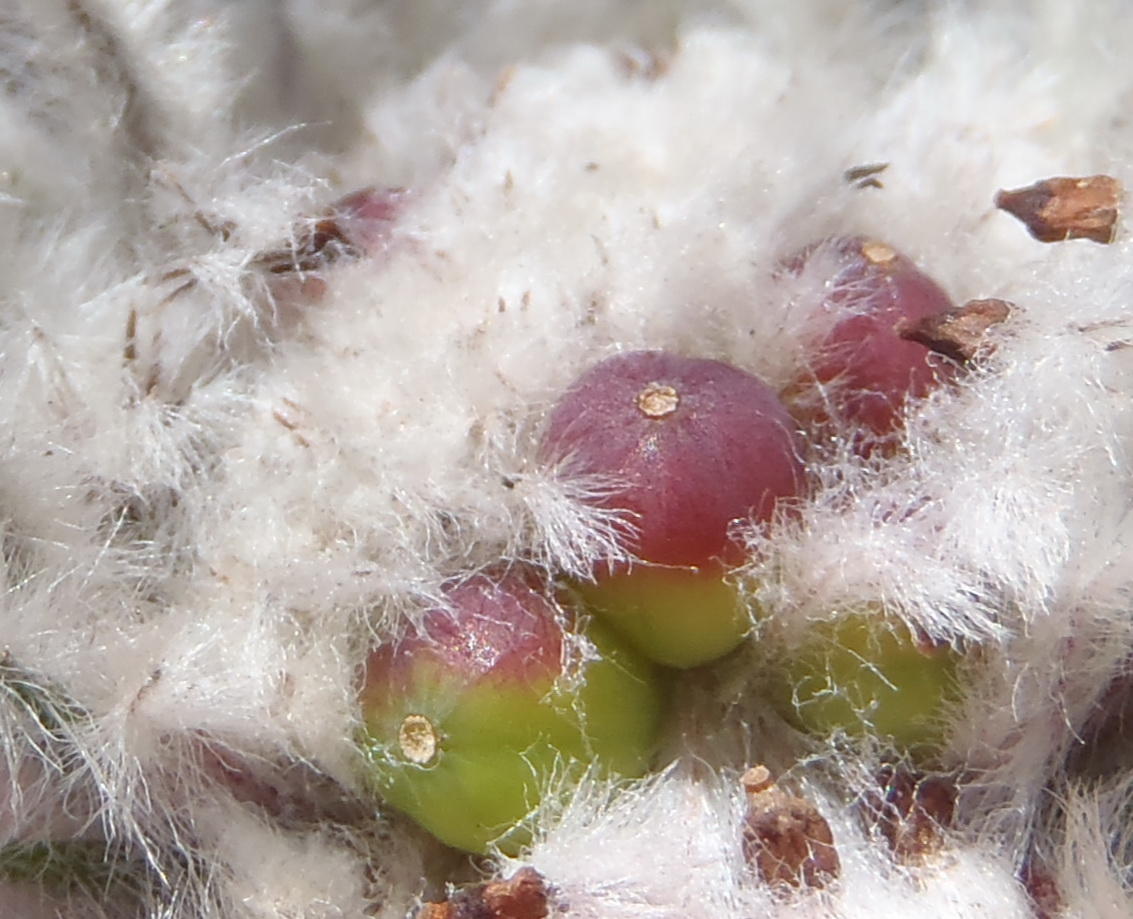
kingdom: Plantae
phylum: Tracheophyta
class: Magnoliopsida
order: Rosales
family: Rhamnaceae
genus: Phylica
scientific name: Phylica meyeri
